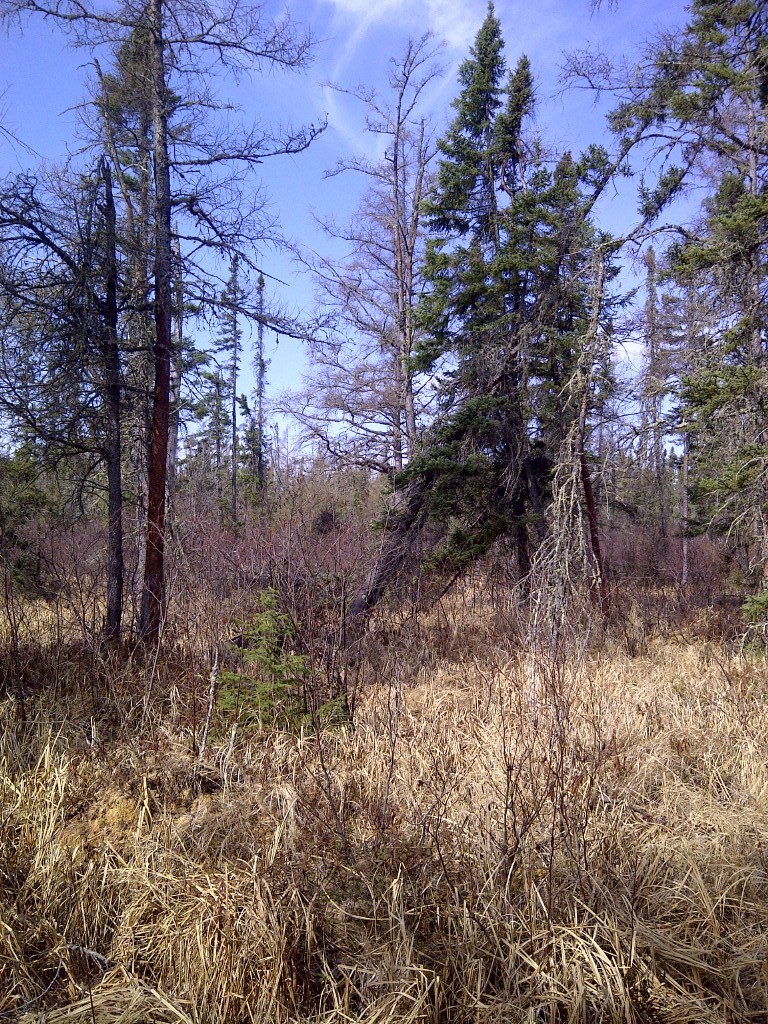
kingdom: Animalia
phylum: Chordata
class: Aves
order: Strigiformes
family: Strigidae
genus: Strix
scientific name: Strix nebulosa
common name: Great grey owl
